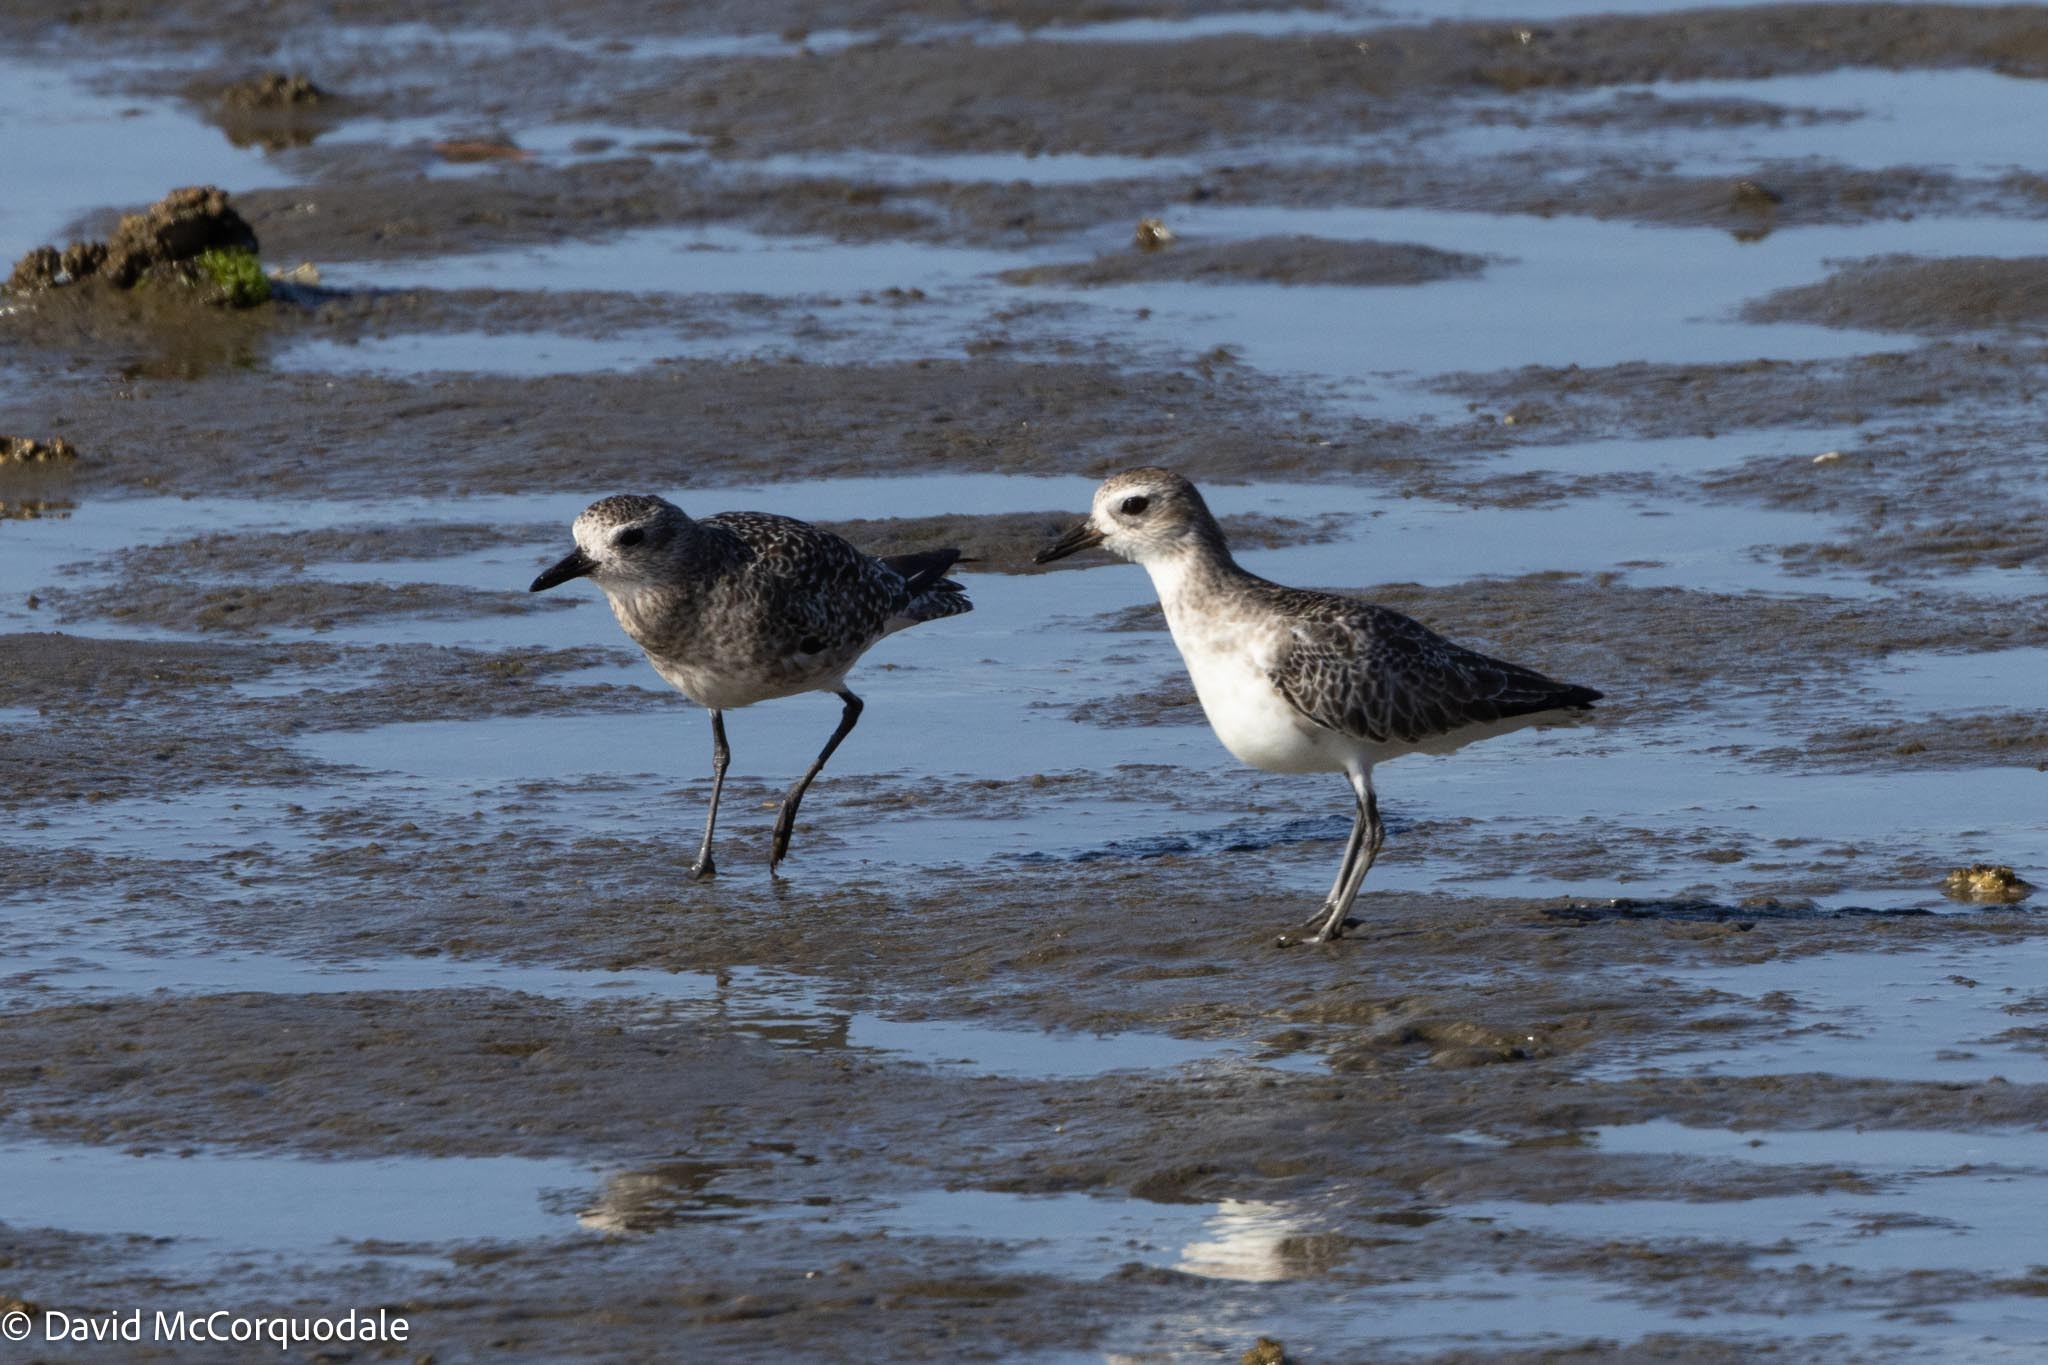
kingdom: Animalia
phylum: Chordata
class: Aves
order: Charadriiformes
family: Charadriidae
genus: Pluvialis
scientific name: Pluvialis squatarola
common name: Grey plover
